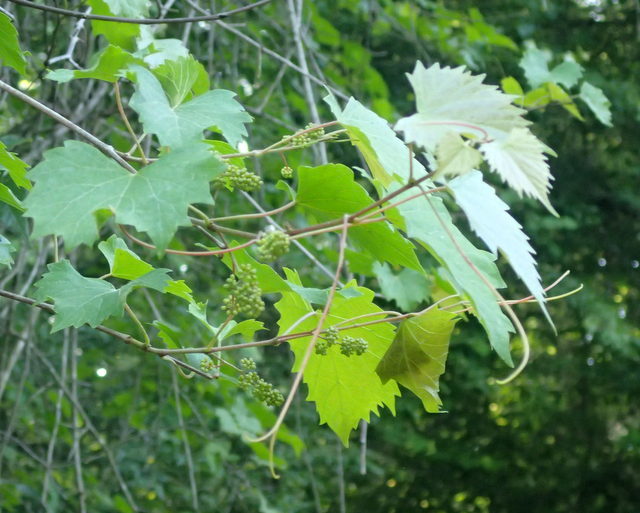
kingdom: Plantae
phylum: Tracheophyta
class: Magnoliopsida
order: Vitales
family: Vitaceae
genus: Vitis
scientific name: Vitis vulpina
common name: Frost grape
